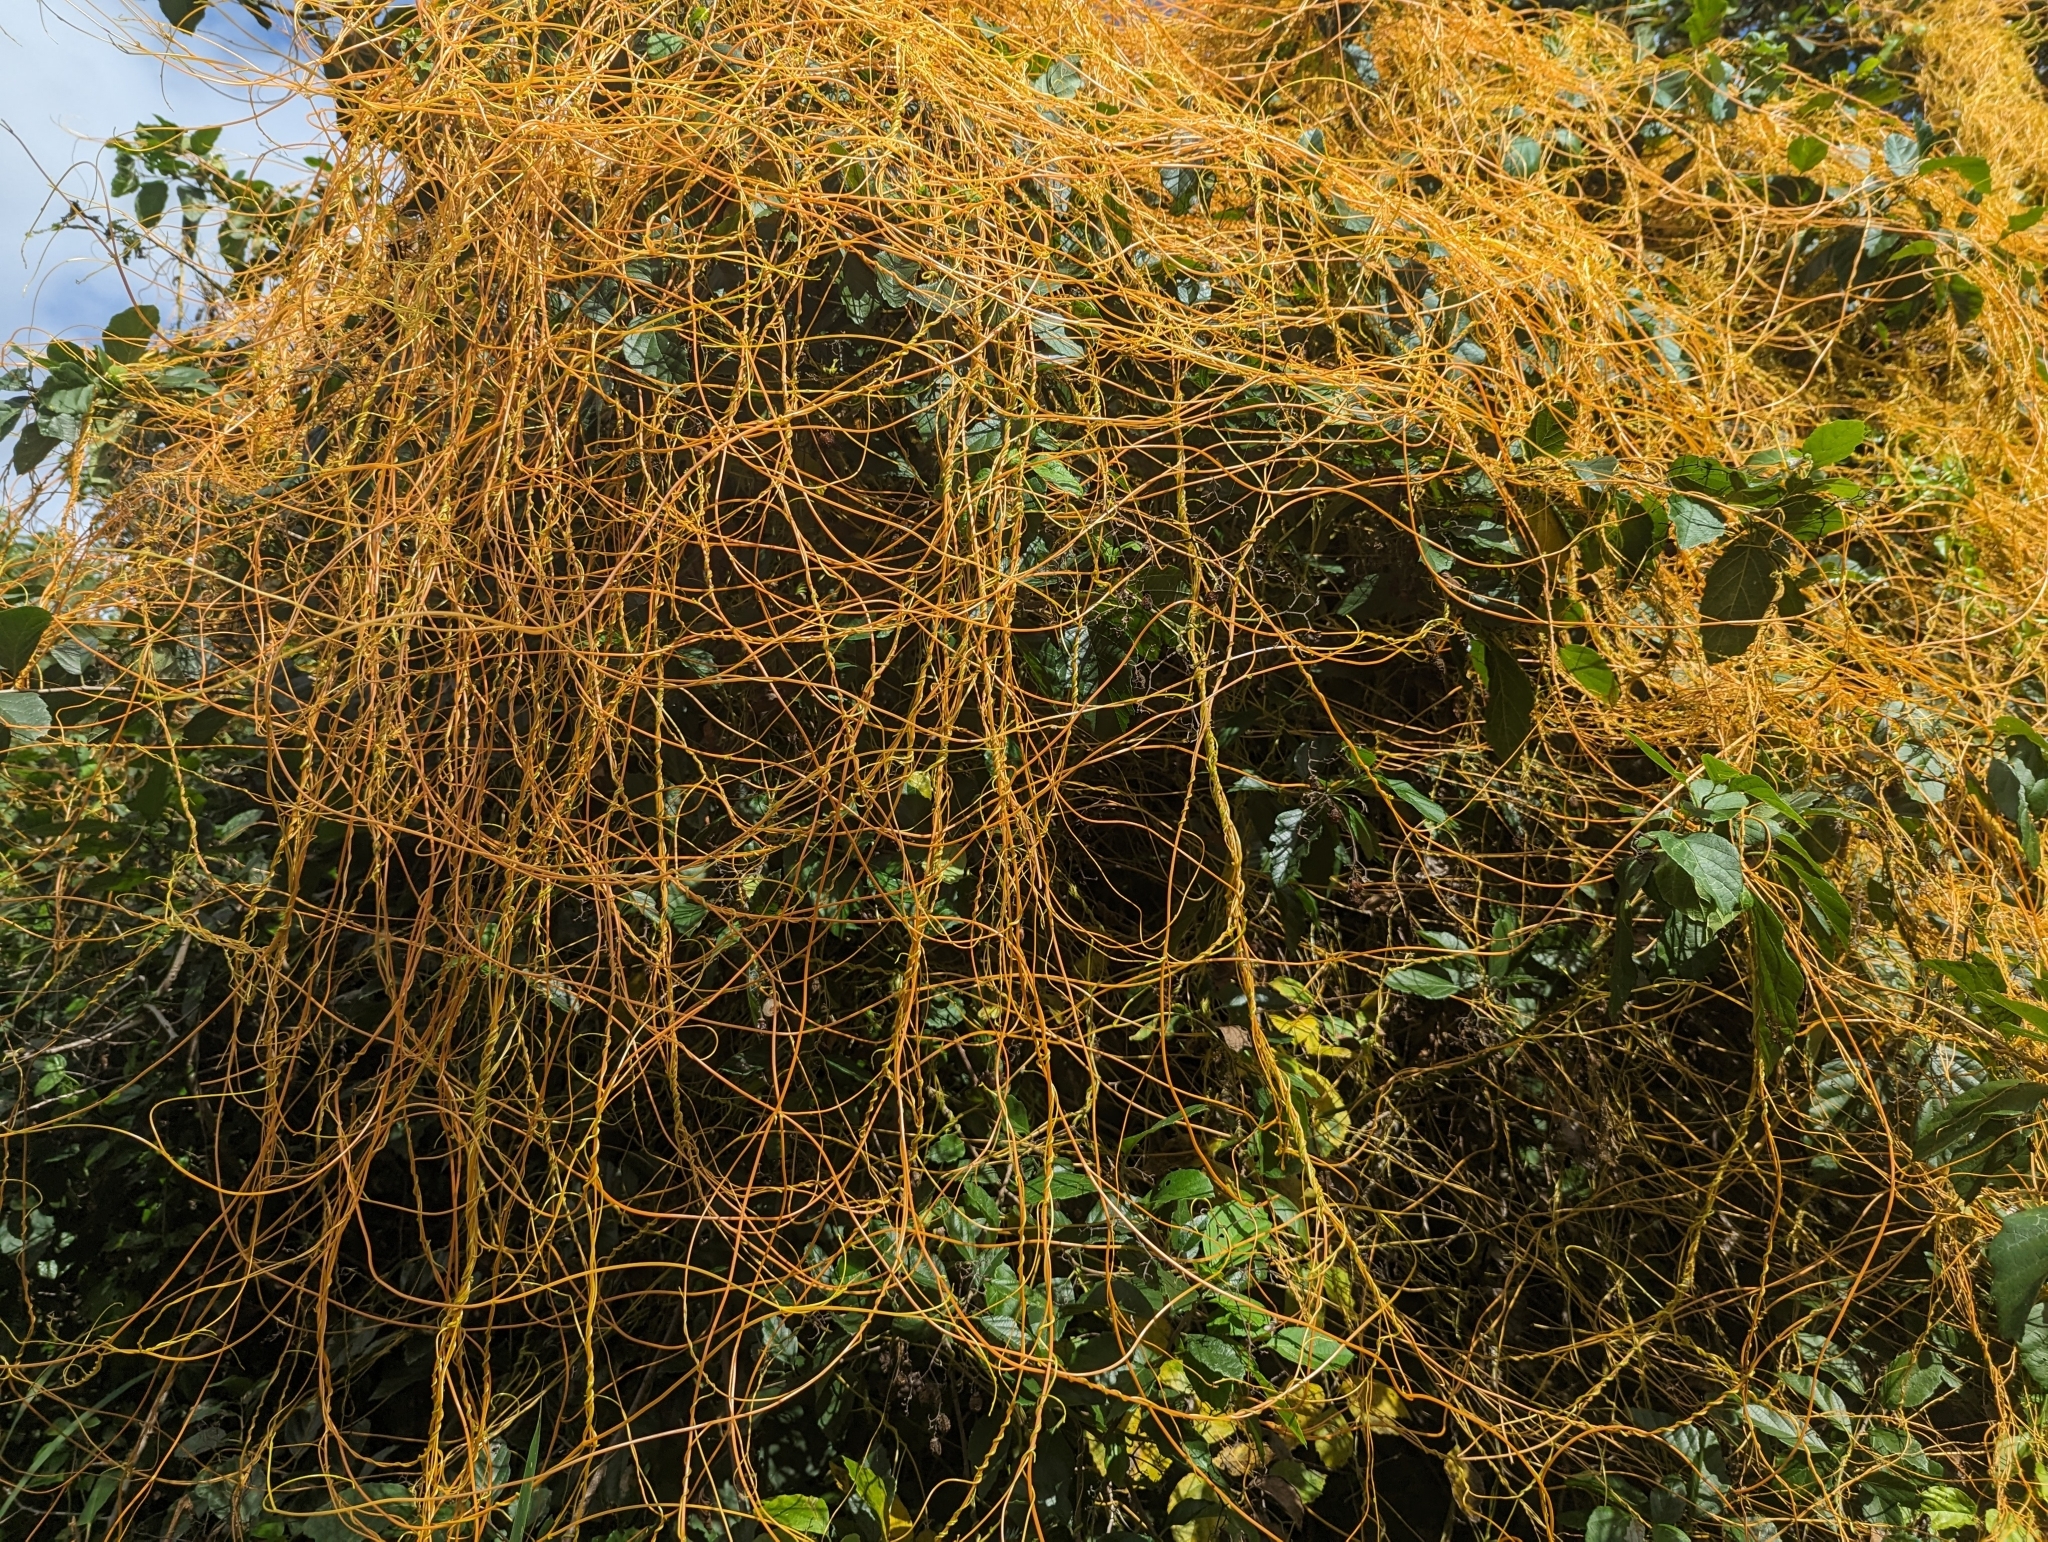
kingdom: Plantae
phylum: Tracheophyta
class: Magnoliopsida
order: Laurales
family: Lauraceae
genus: Cassytha
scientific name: Cassytha filiformis
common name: Dodder-laurel
